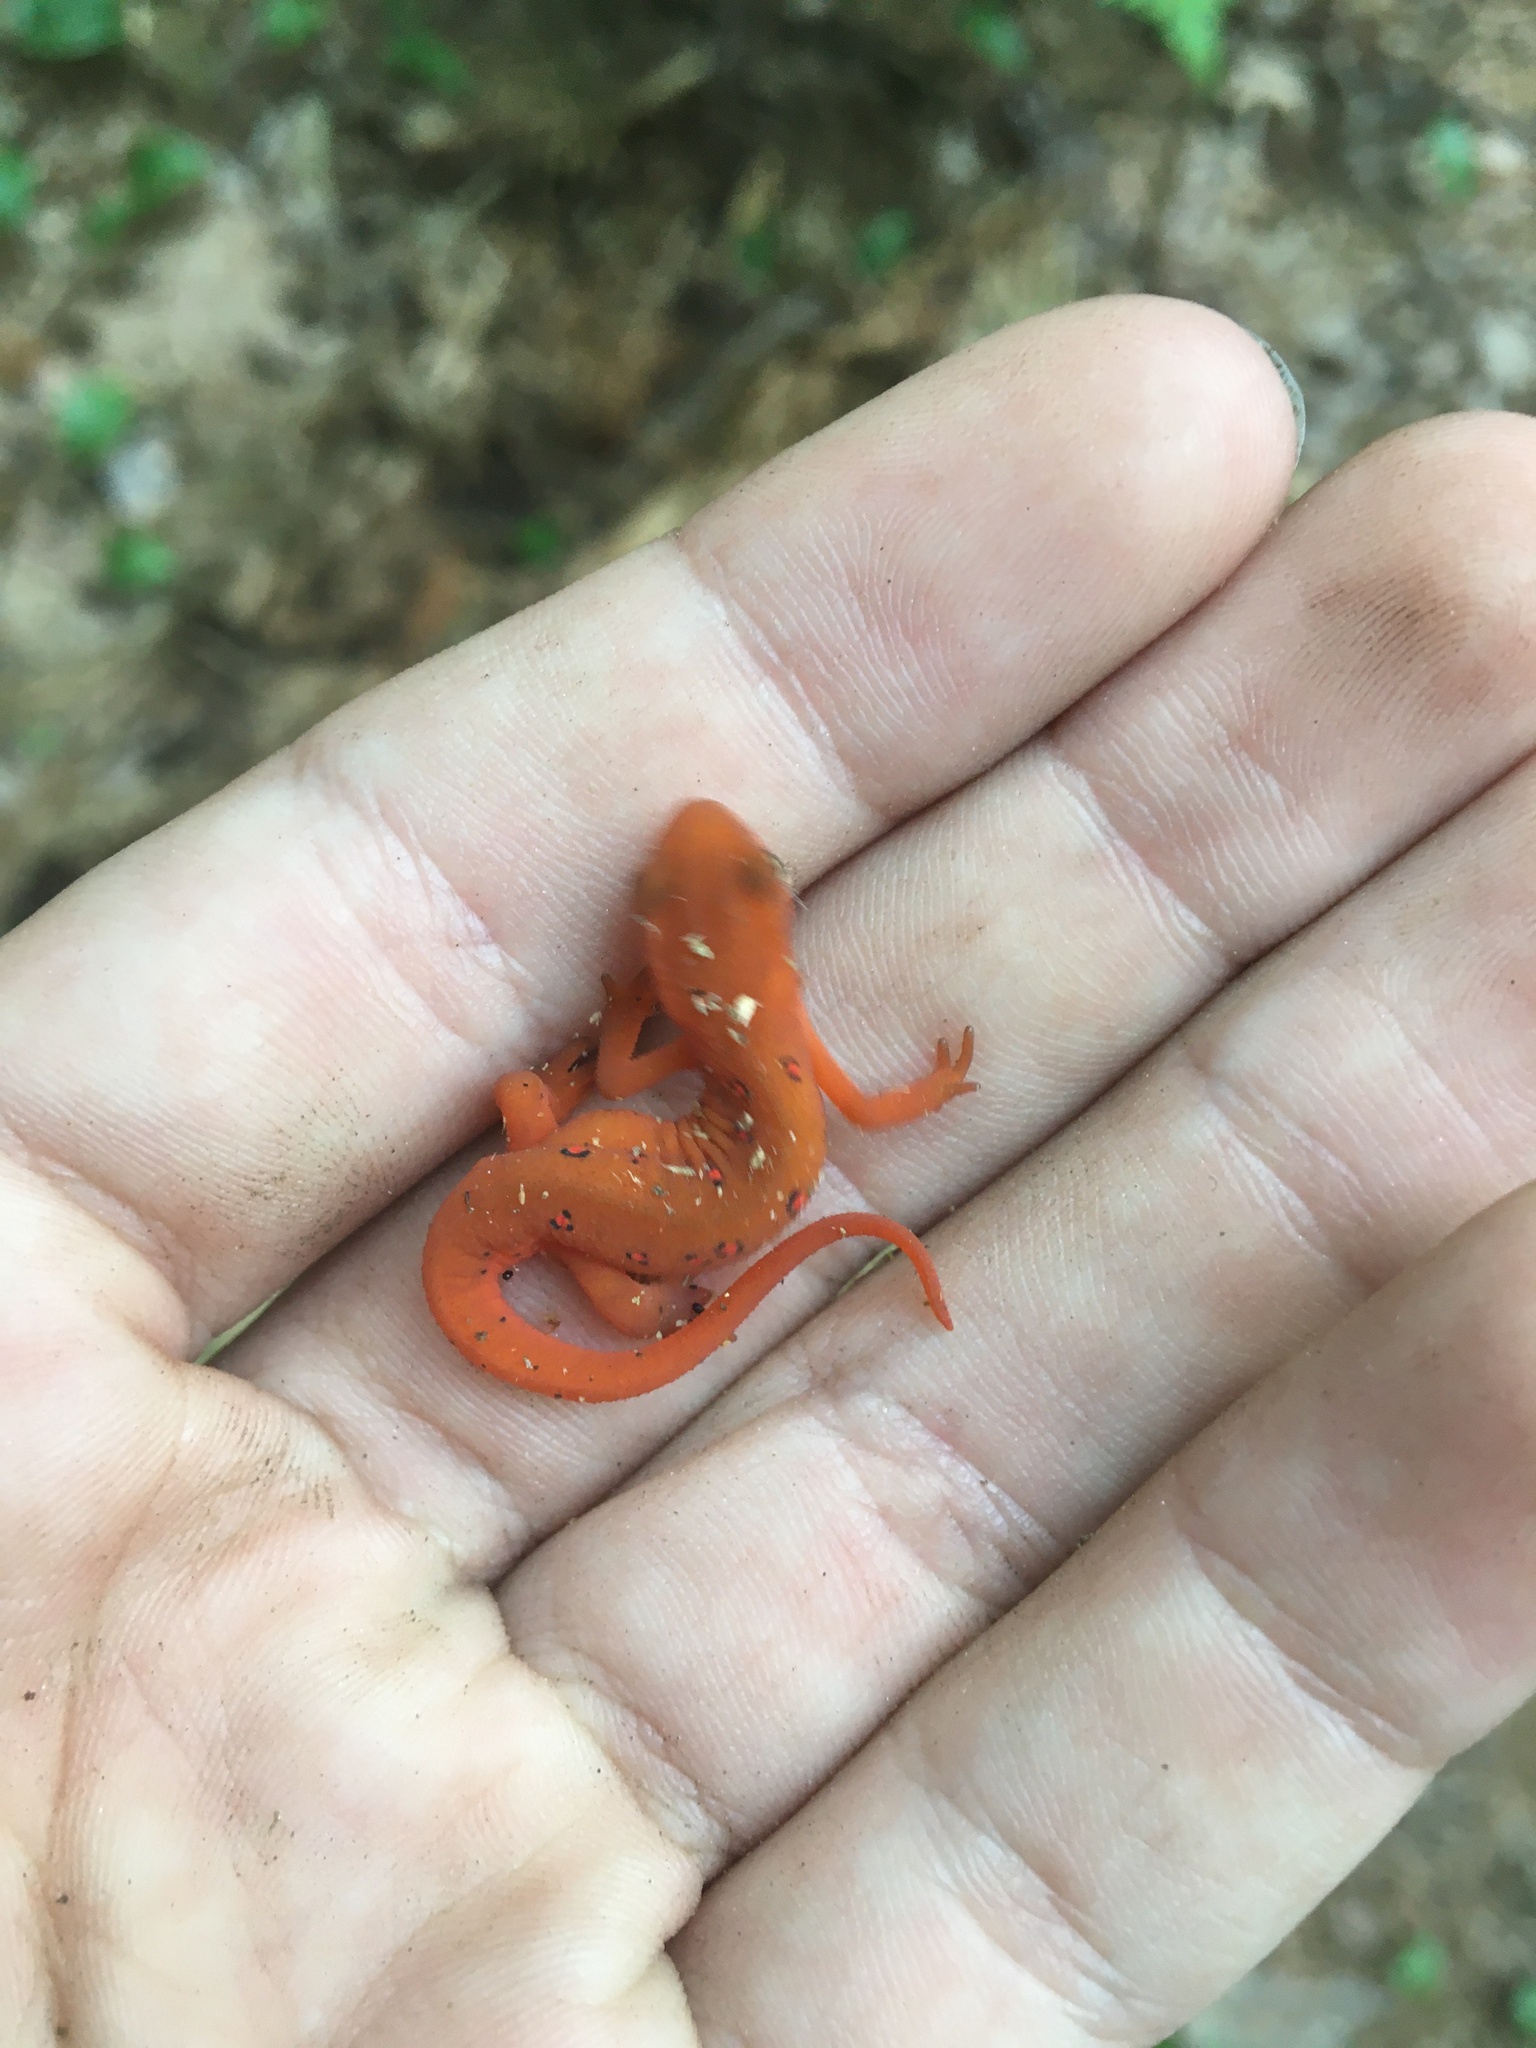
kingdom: Animalia
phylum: Chordata
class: Amphibia
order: Caudata
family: Salamandridae
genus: Notophthalmus
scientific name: Notophthalmus viridescens
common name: Eastern newt
